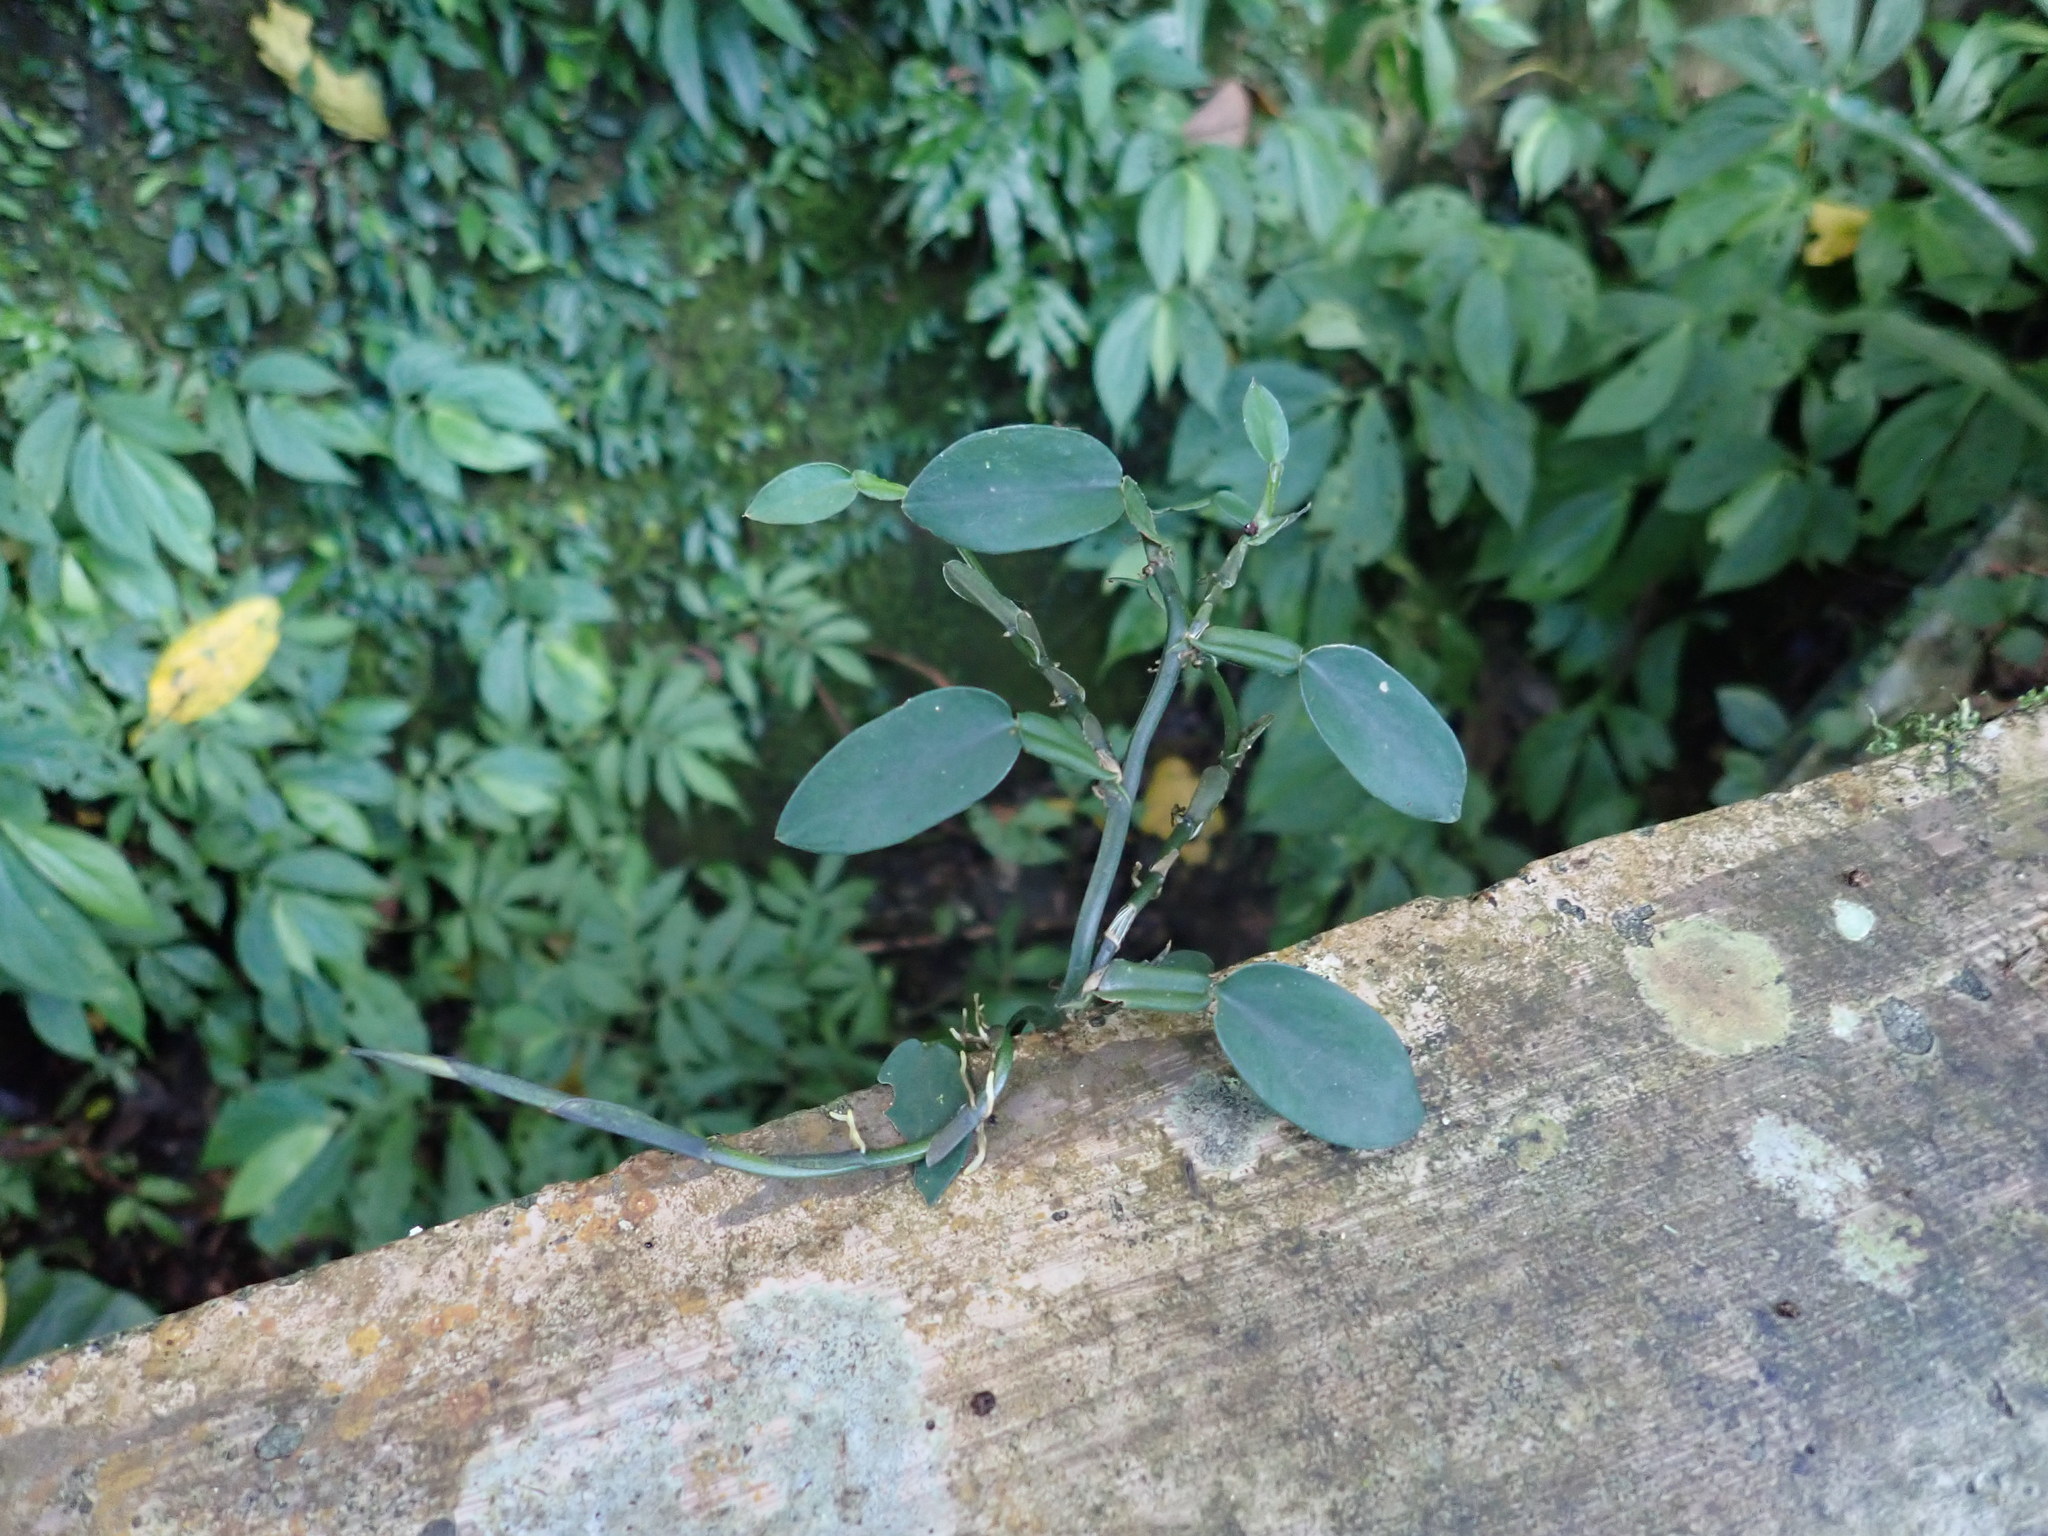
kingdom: Plantae
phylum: Tracheophyta
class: Liliopsida
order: Alismatales
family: Araceae
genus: Pothos
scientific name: Pothos chinensis
